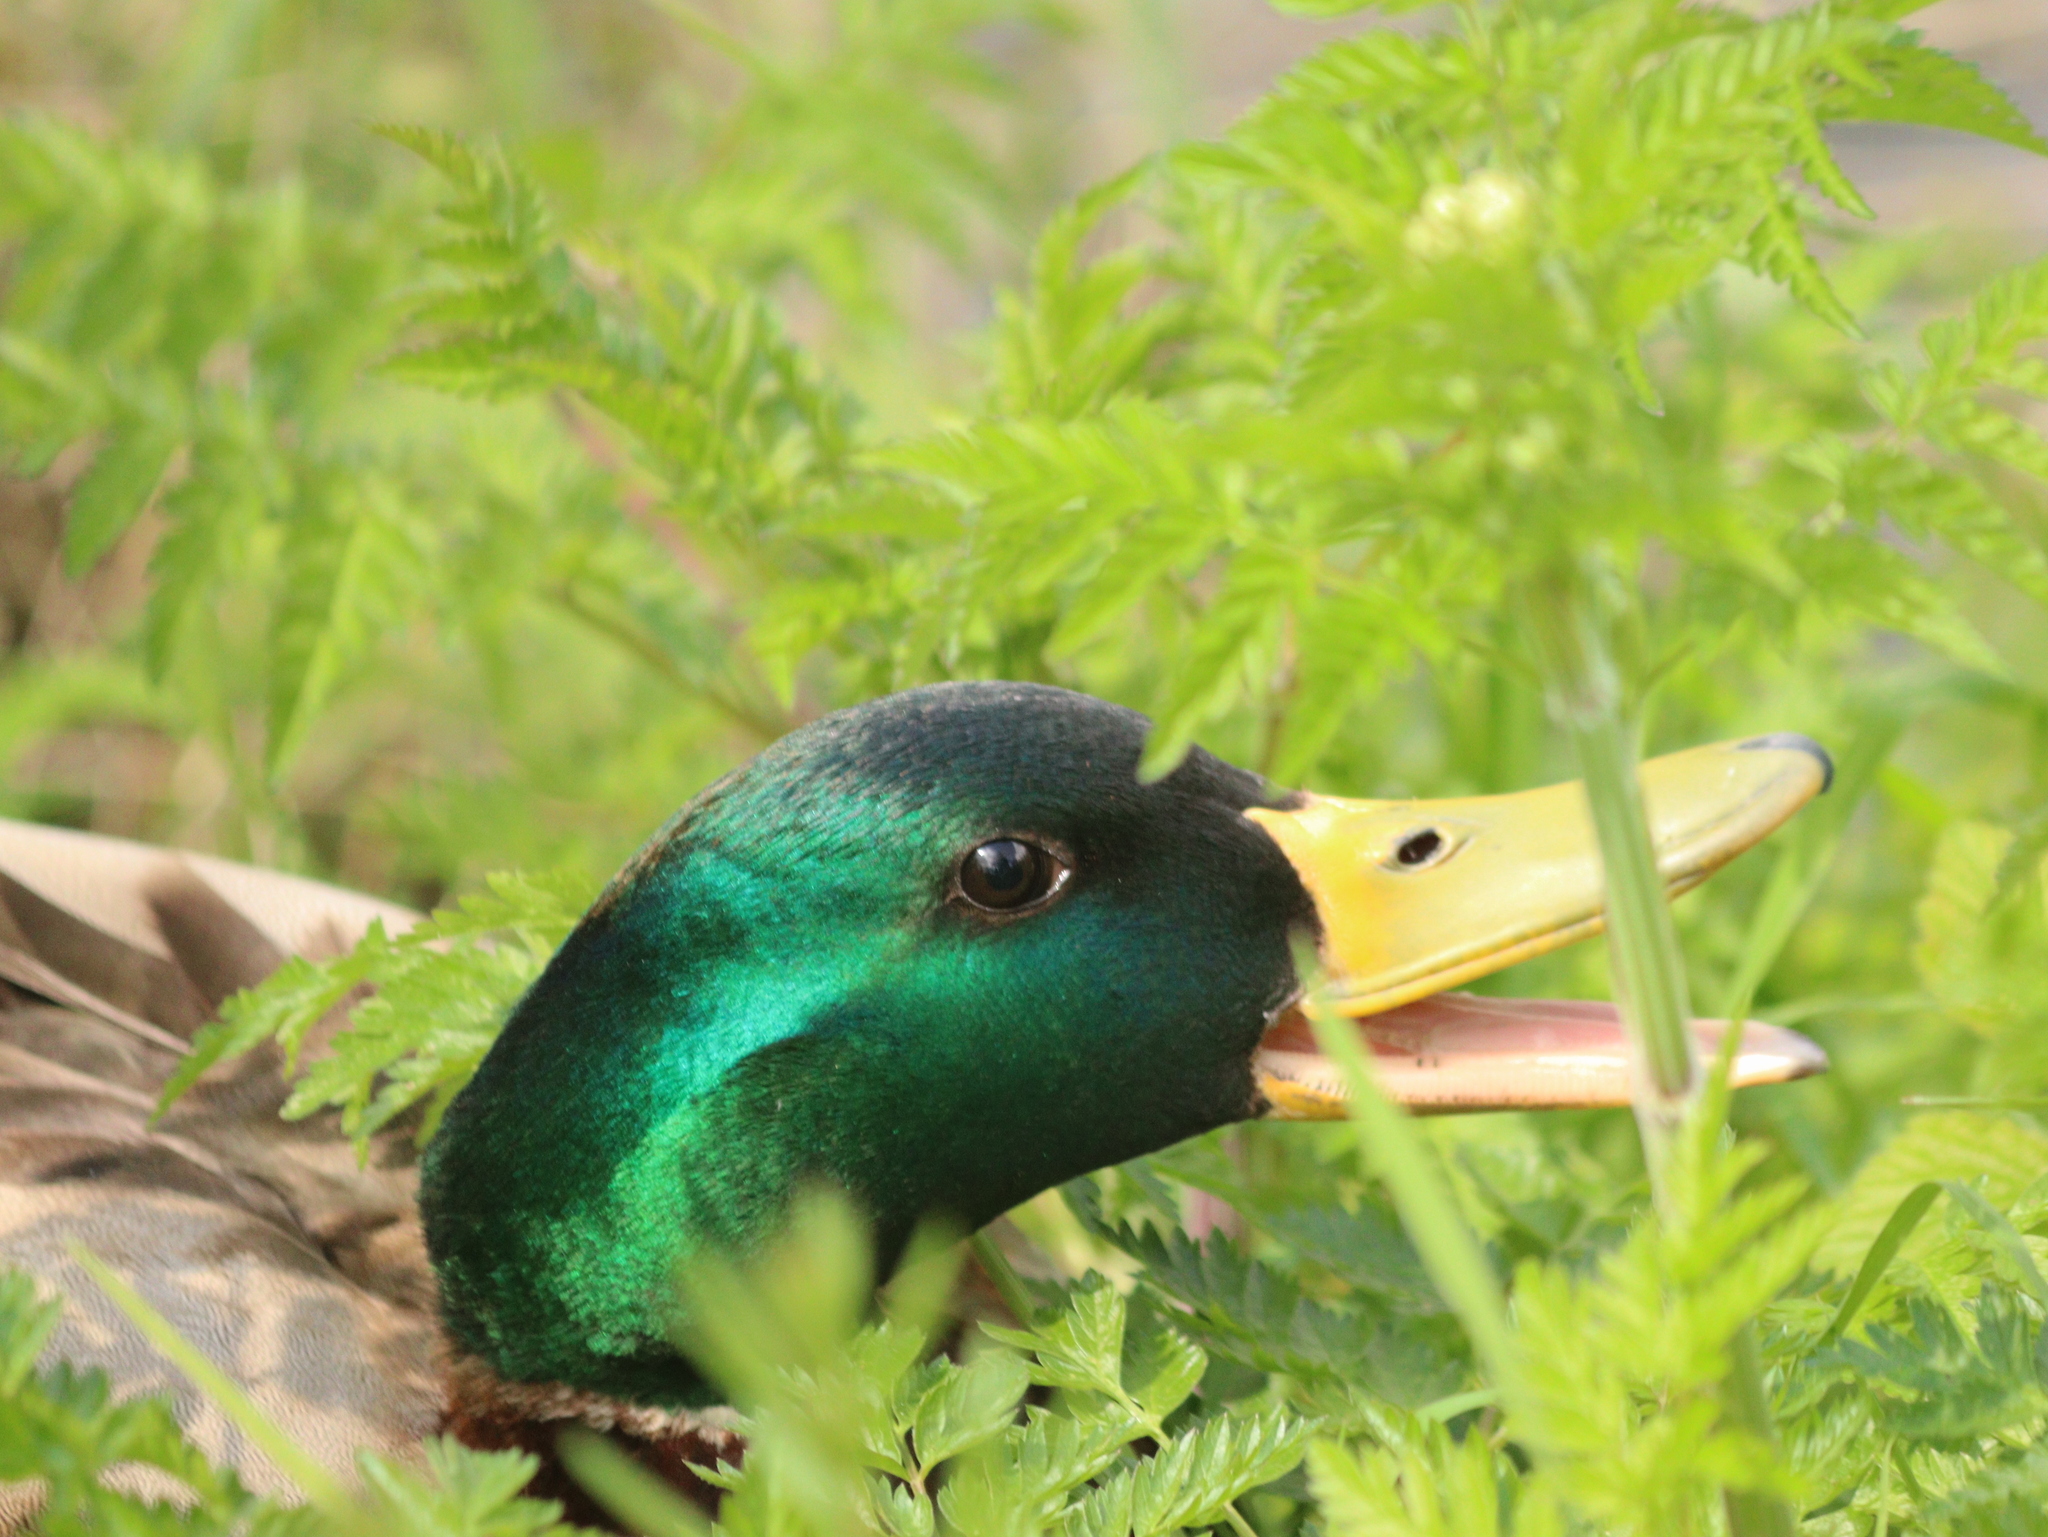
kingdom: Animalia
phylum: Chordata
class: Aves
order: Anseriformes
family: Anatidae
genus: Anas
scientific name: Anas platyrhynchos
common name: Mallard
